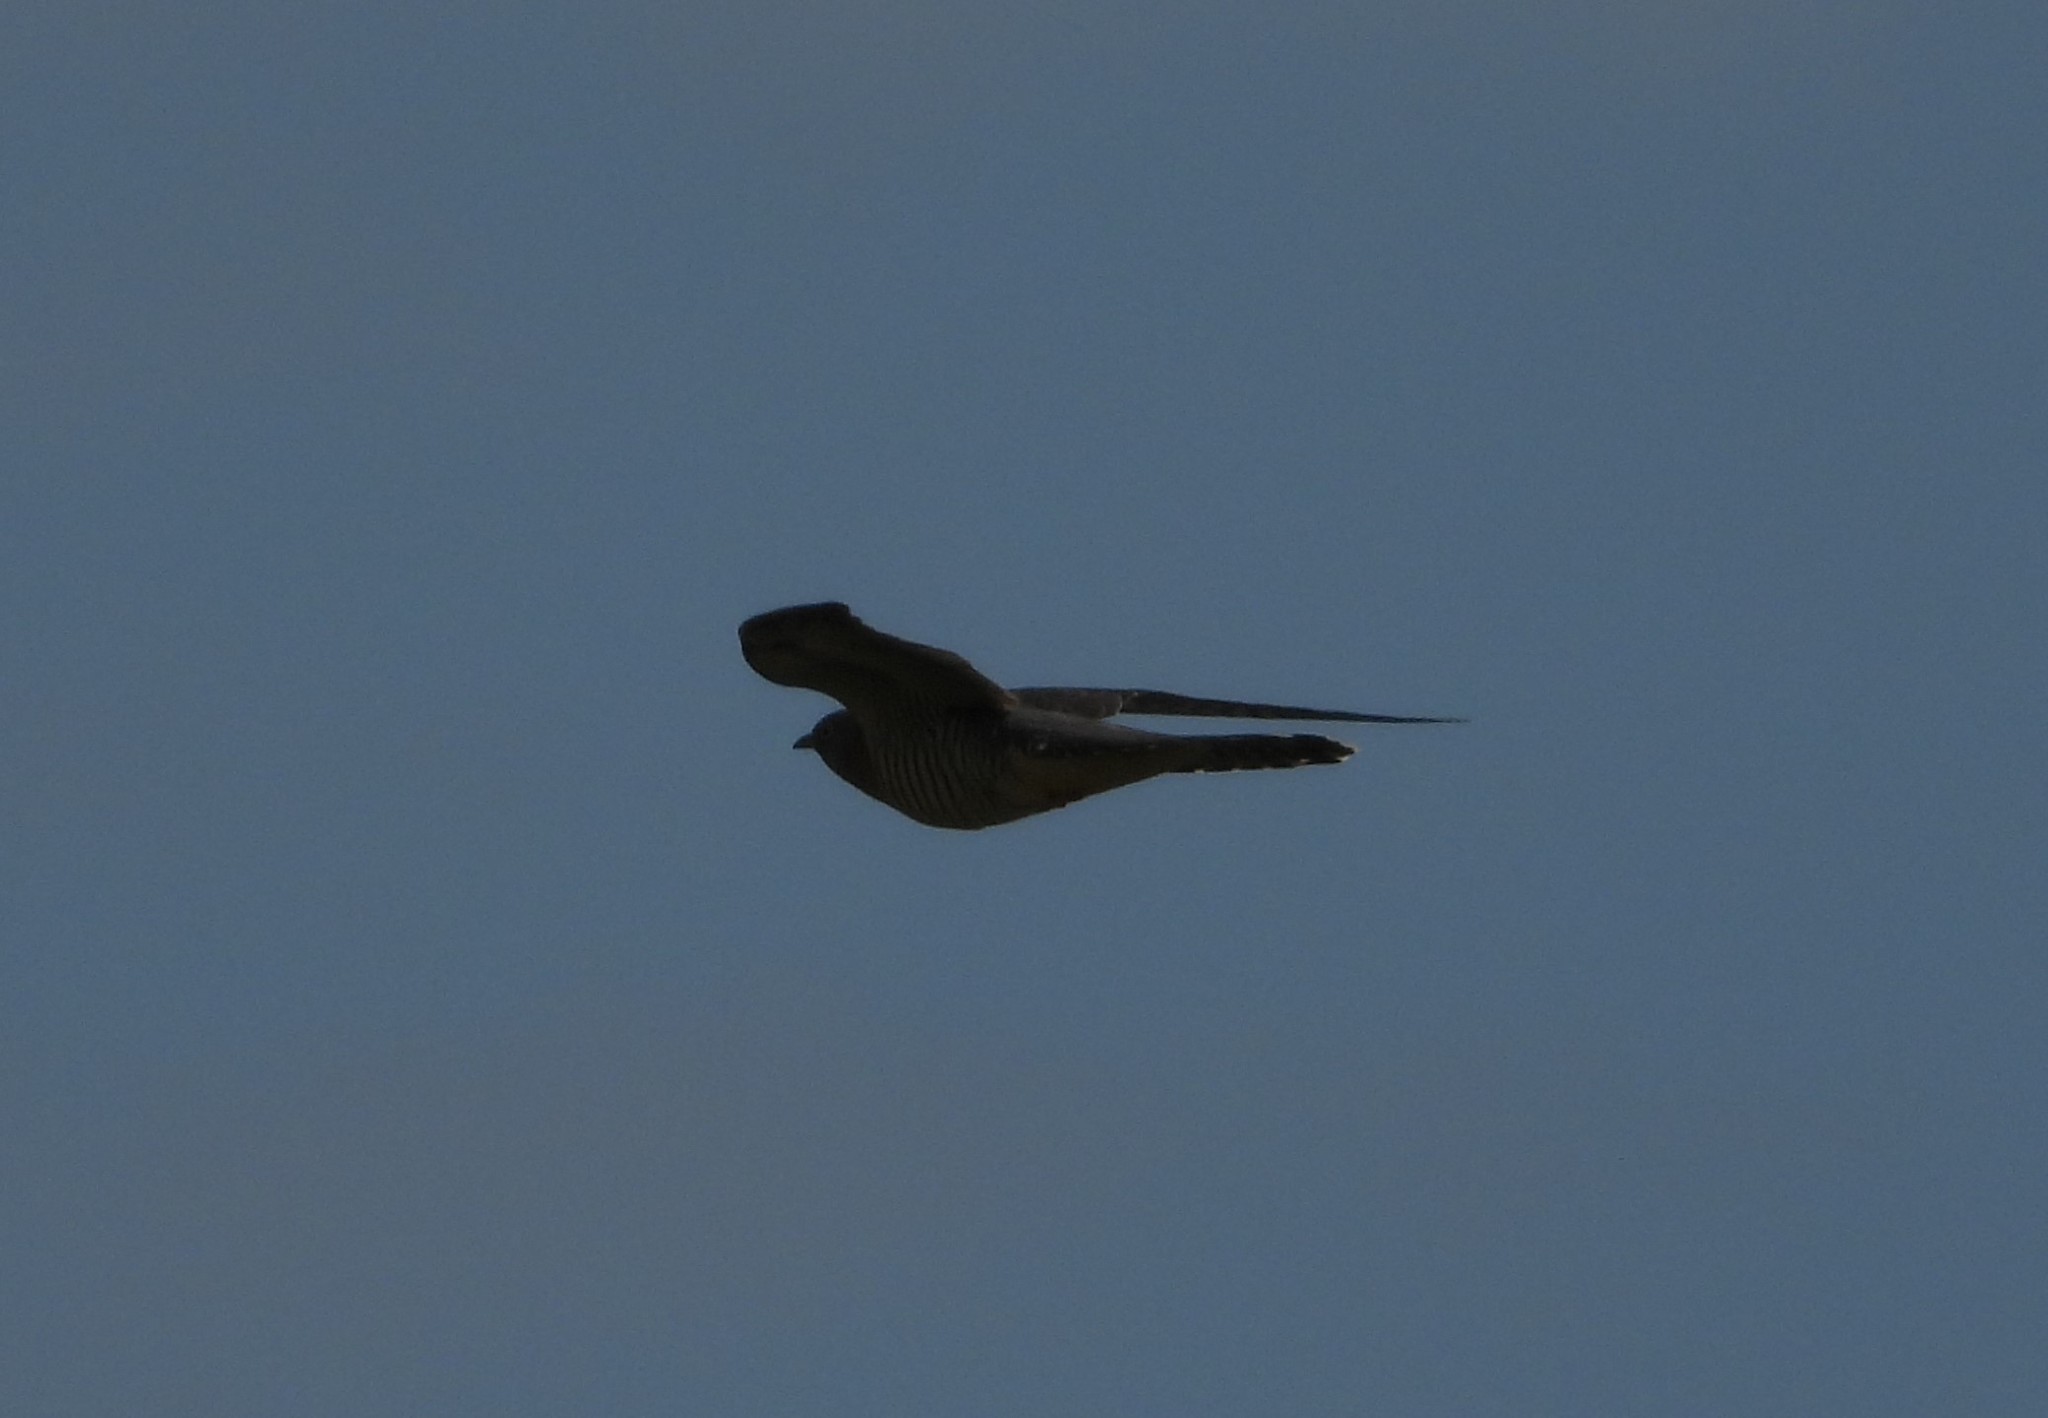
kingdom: Animalia
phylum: Chordata
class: Aves
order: Cuculiformes
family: Cuculidae
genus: Cuculus
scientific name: Cuculus canorus
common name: Common cuckoo
